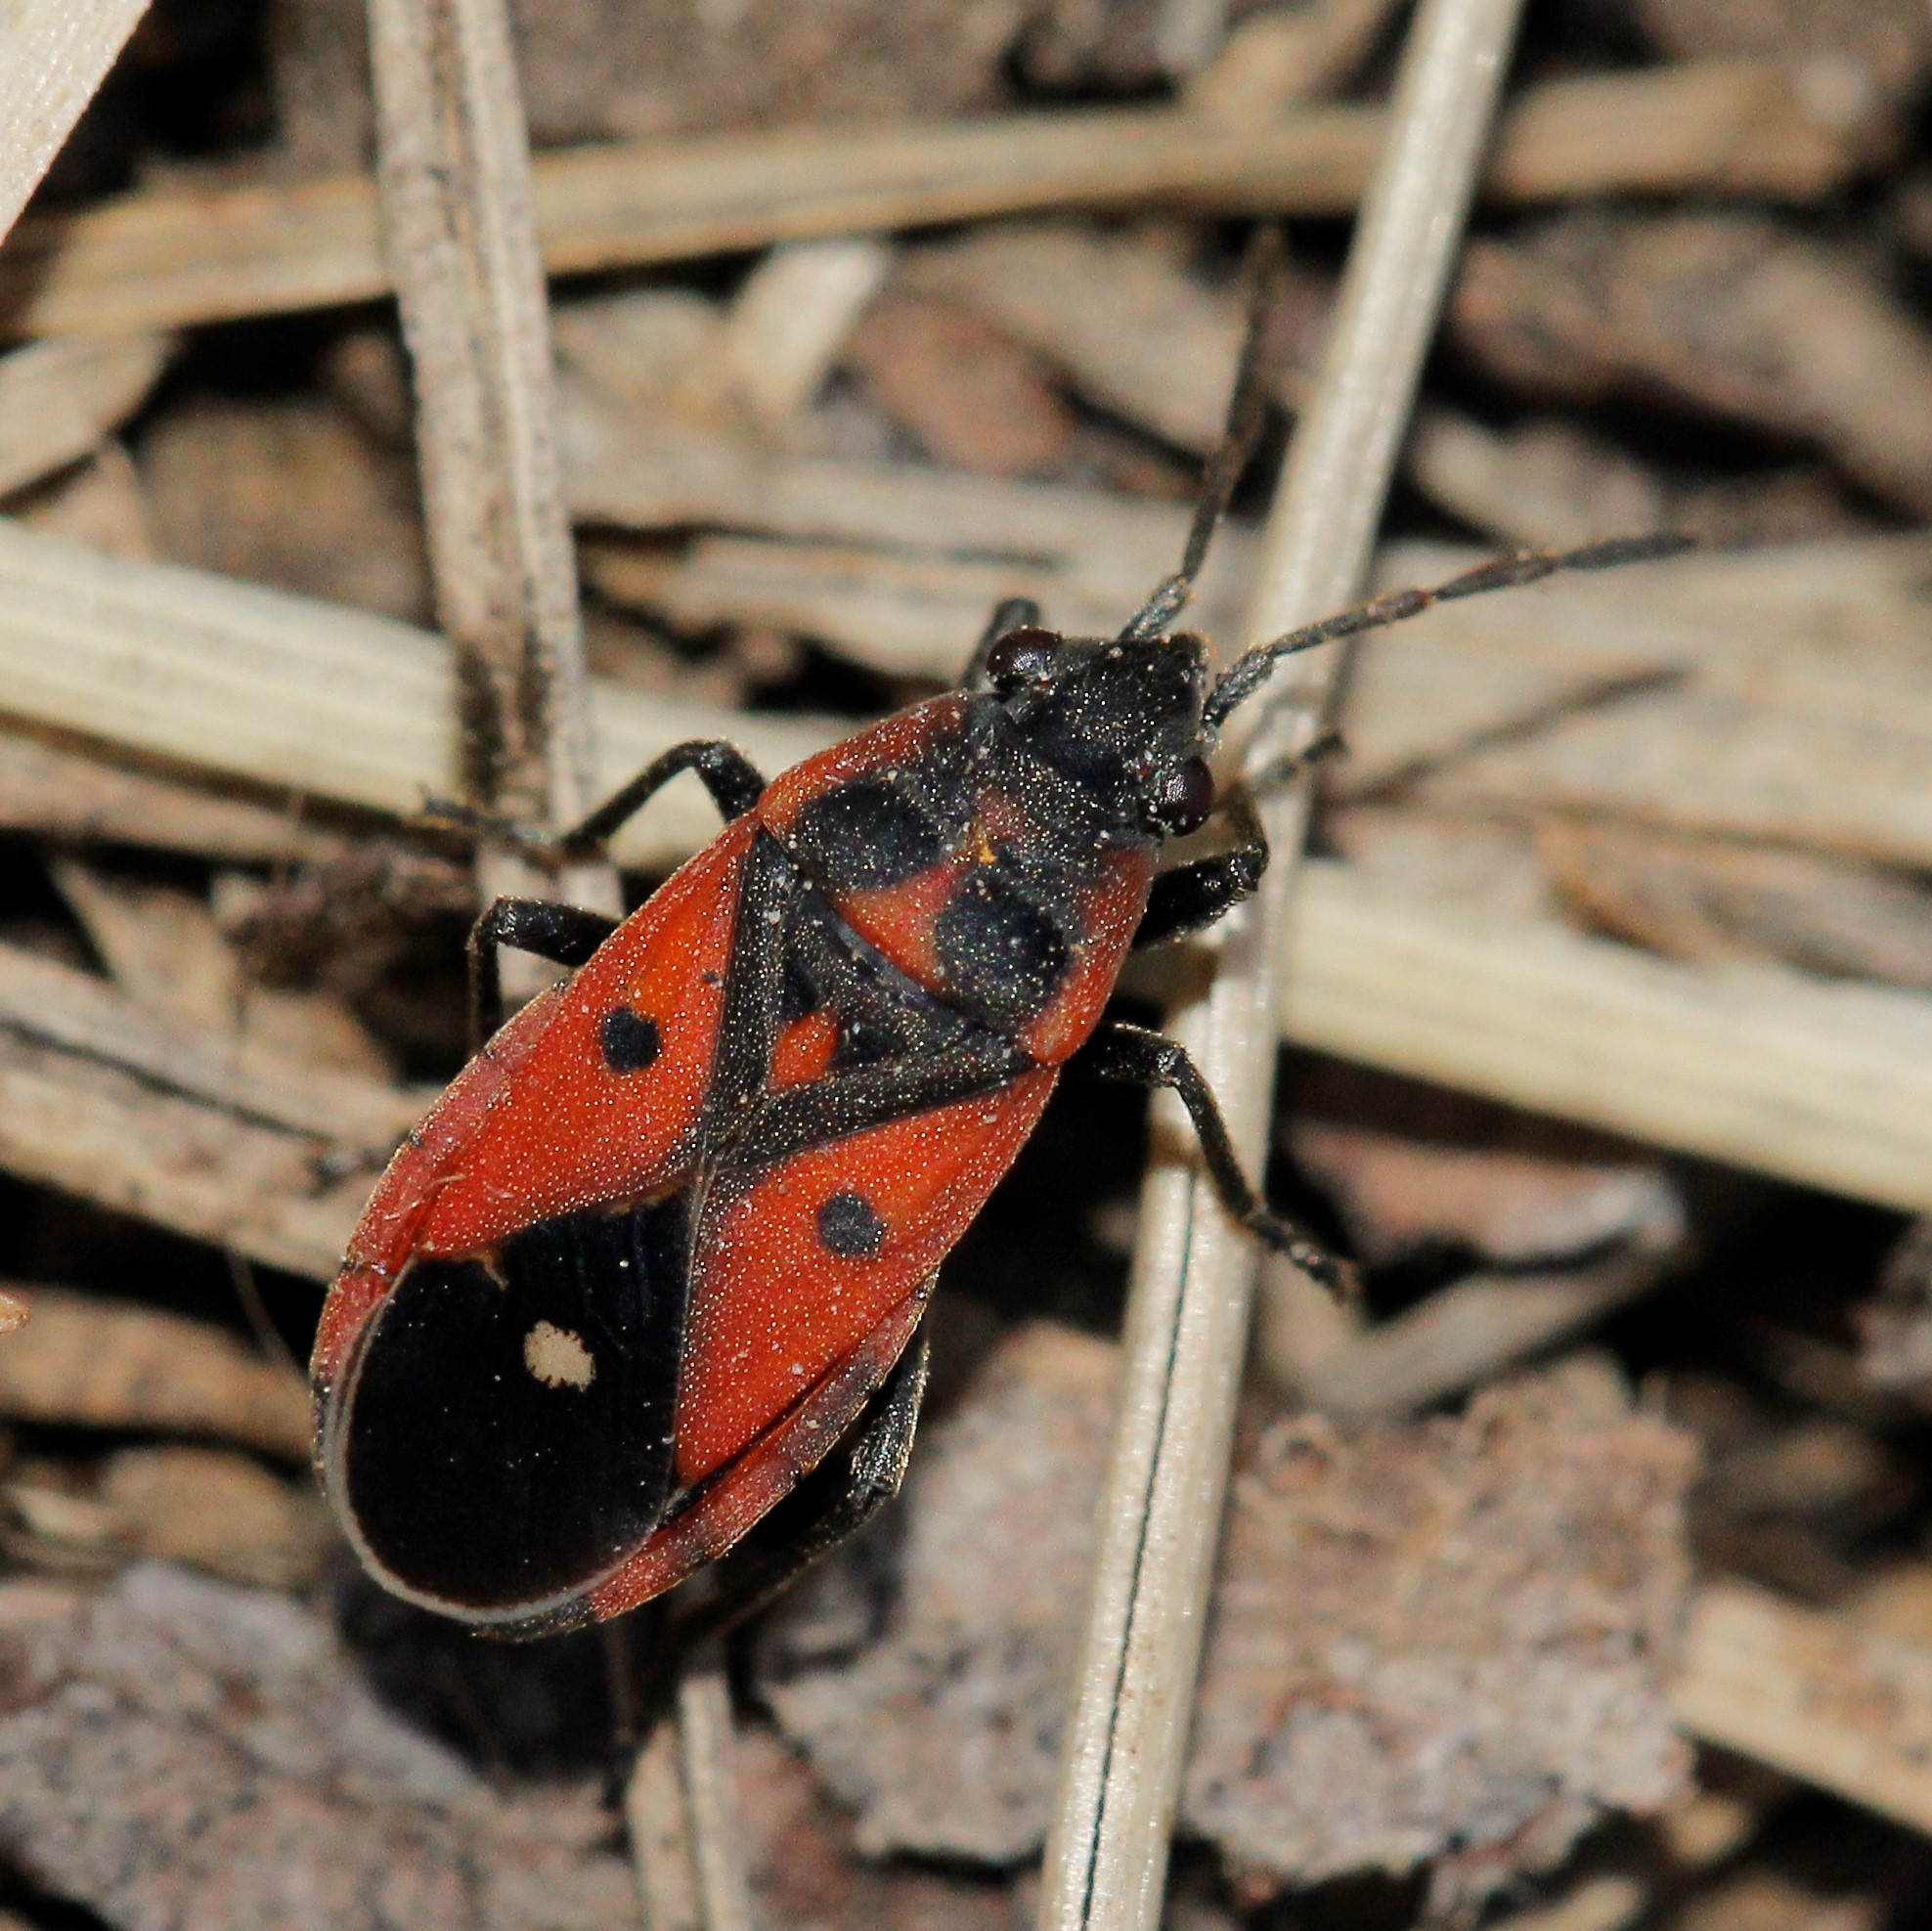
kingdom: Animalia
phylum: Arthropoda
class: Insecta
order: Hemiptera
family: Lygaeidae
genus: Melanocoryphus
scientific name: Melanocoryphus tristrami
